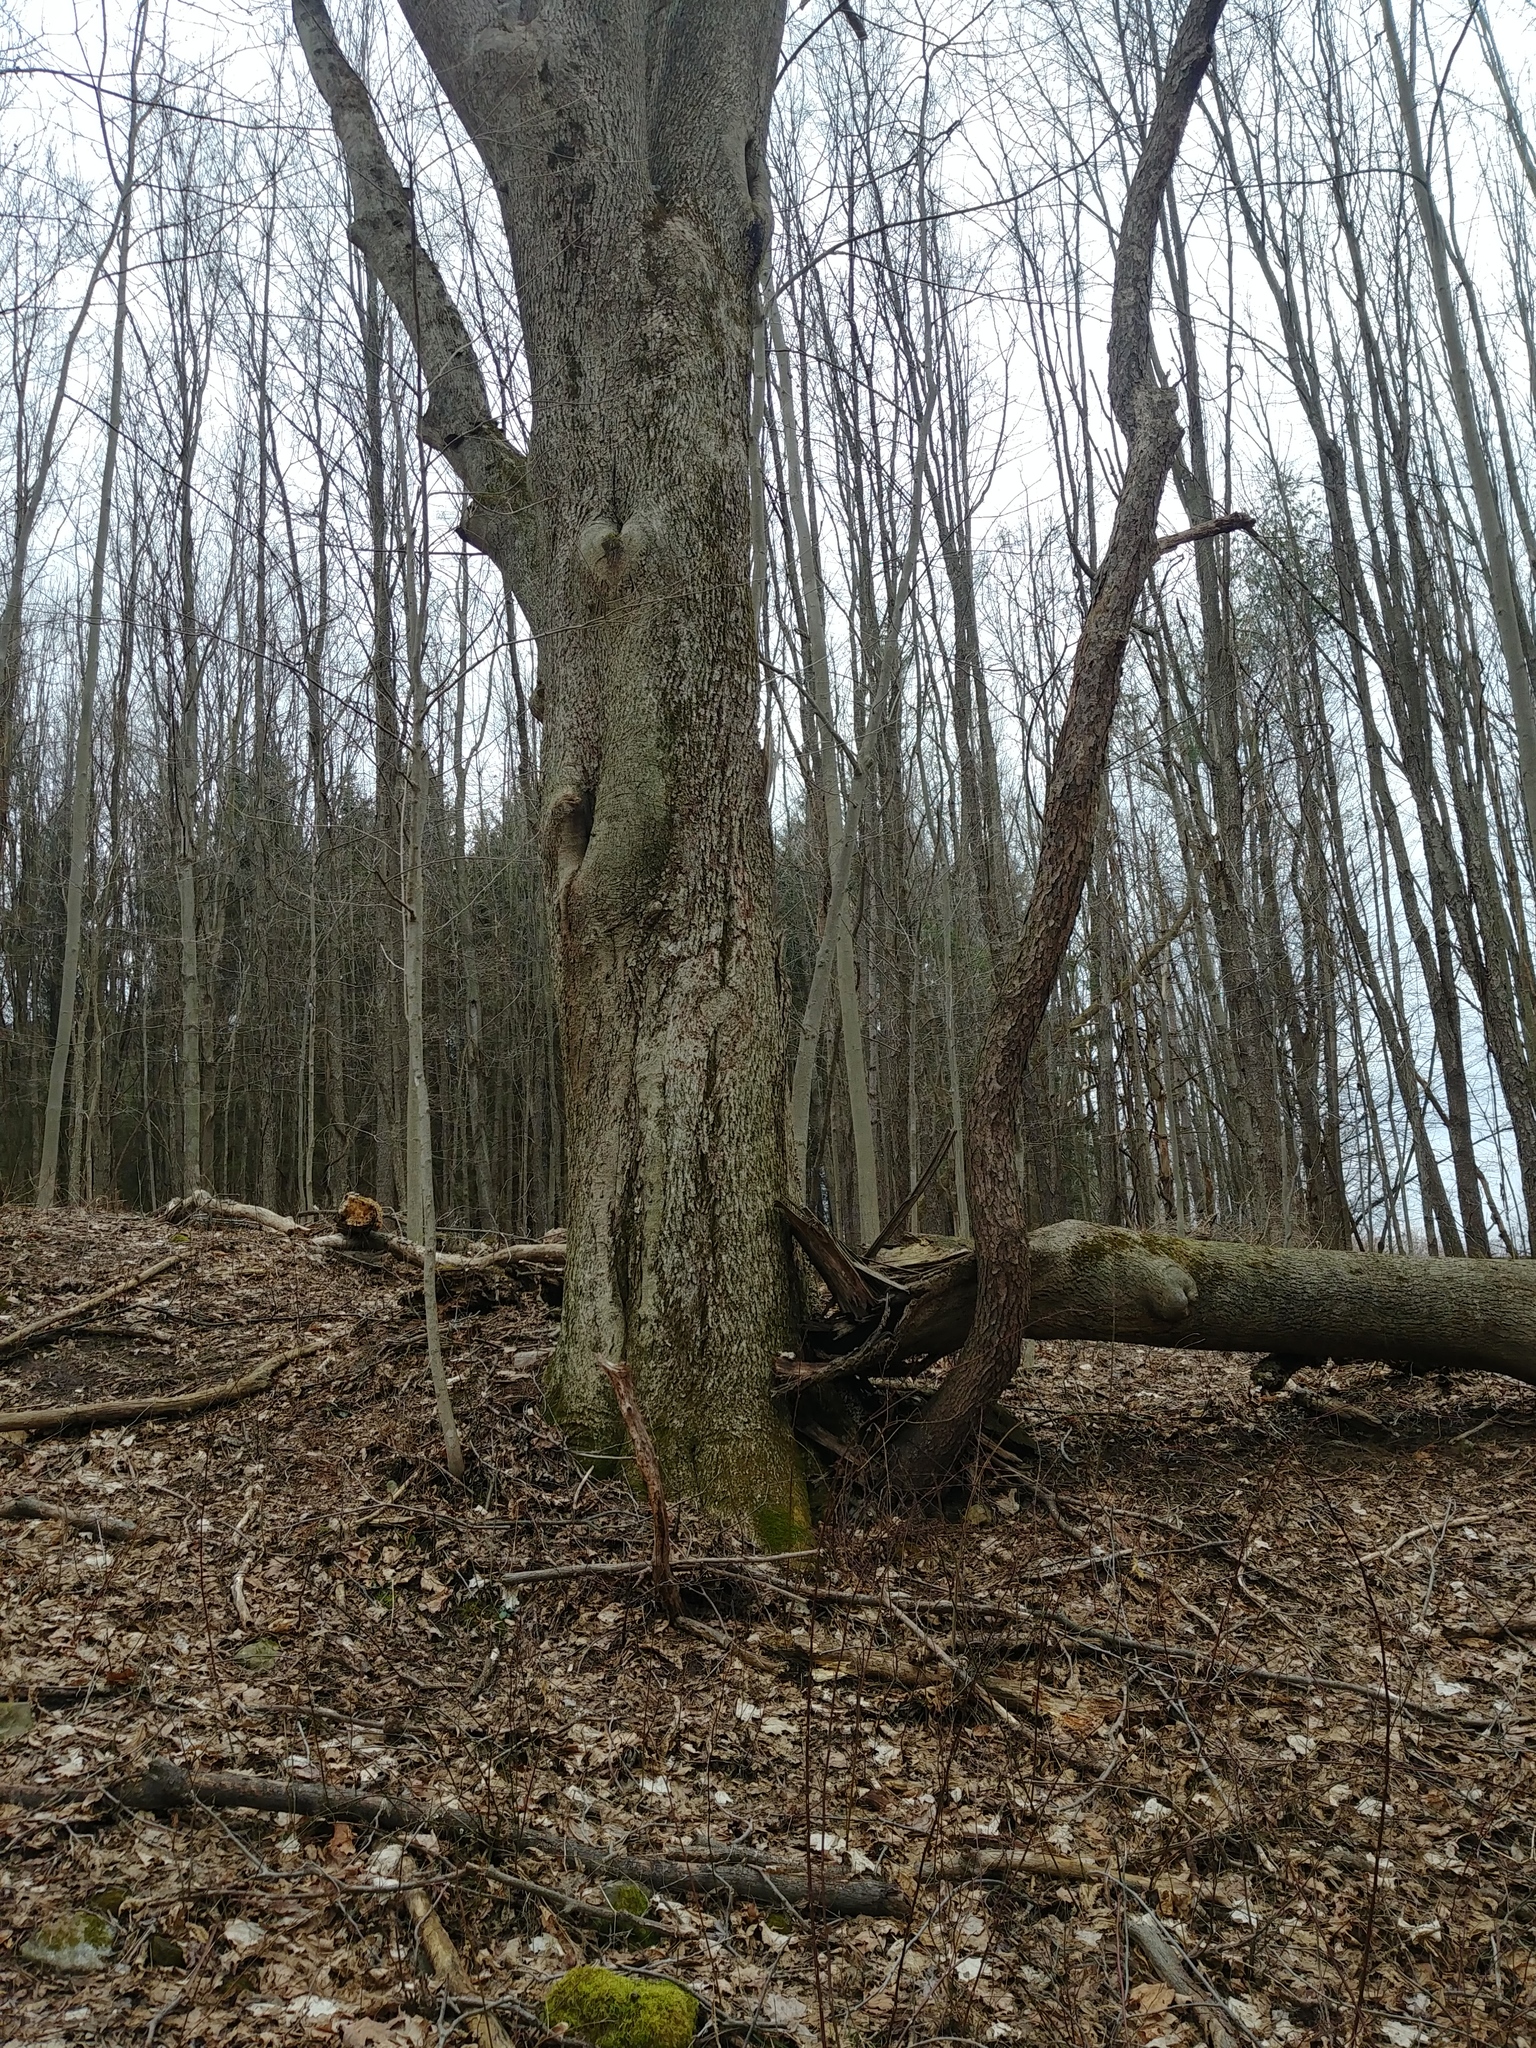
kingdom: Plantae
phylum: Tracheophyta
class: Magnoliopsida
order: Fagales
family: Juglandaceae
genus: Carya
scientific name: Carya cordiformis
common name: Bitternut hickory
